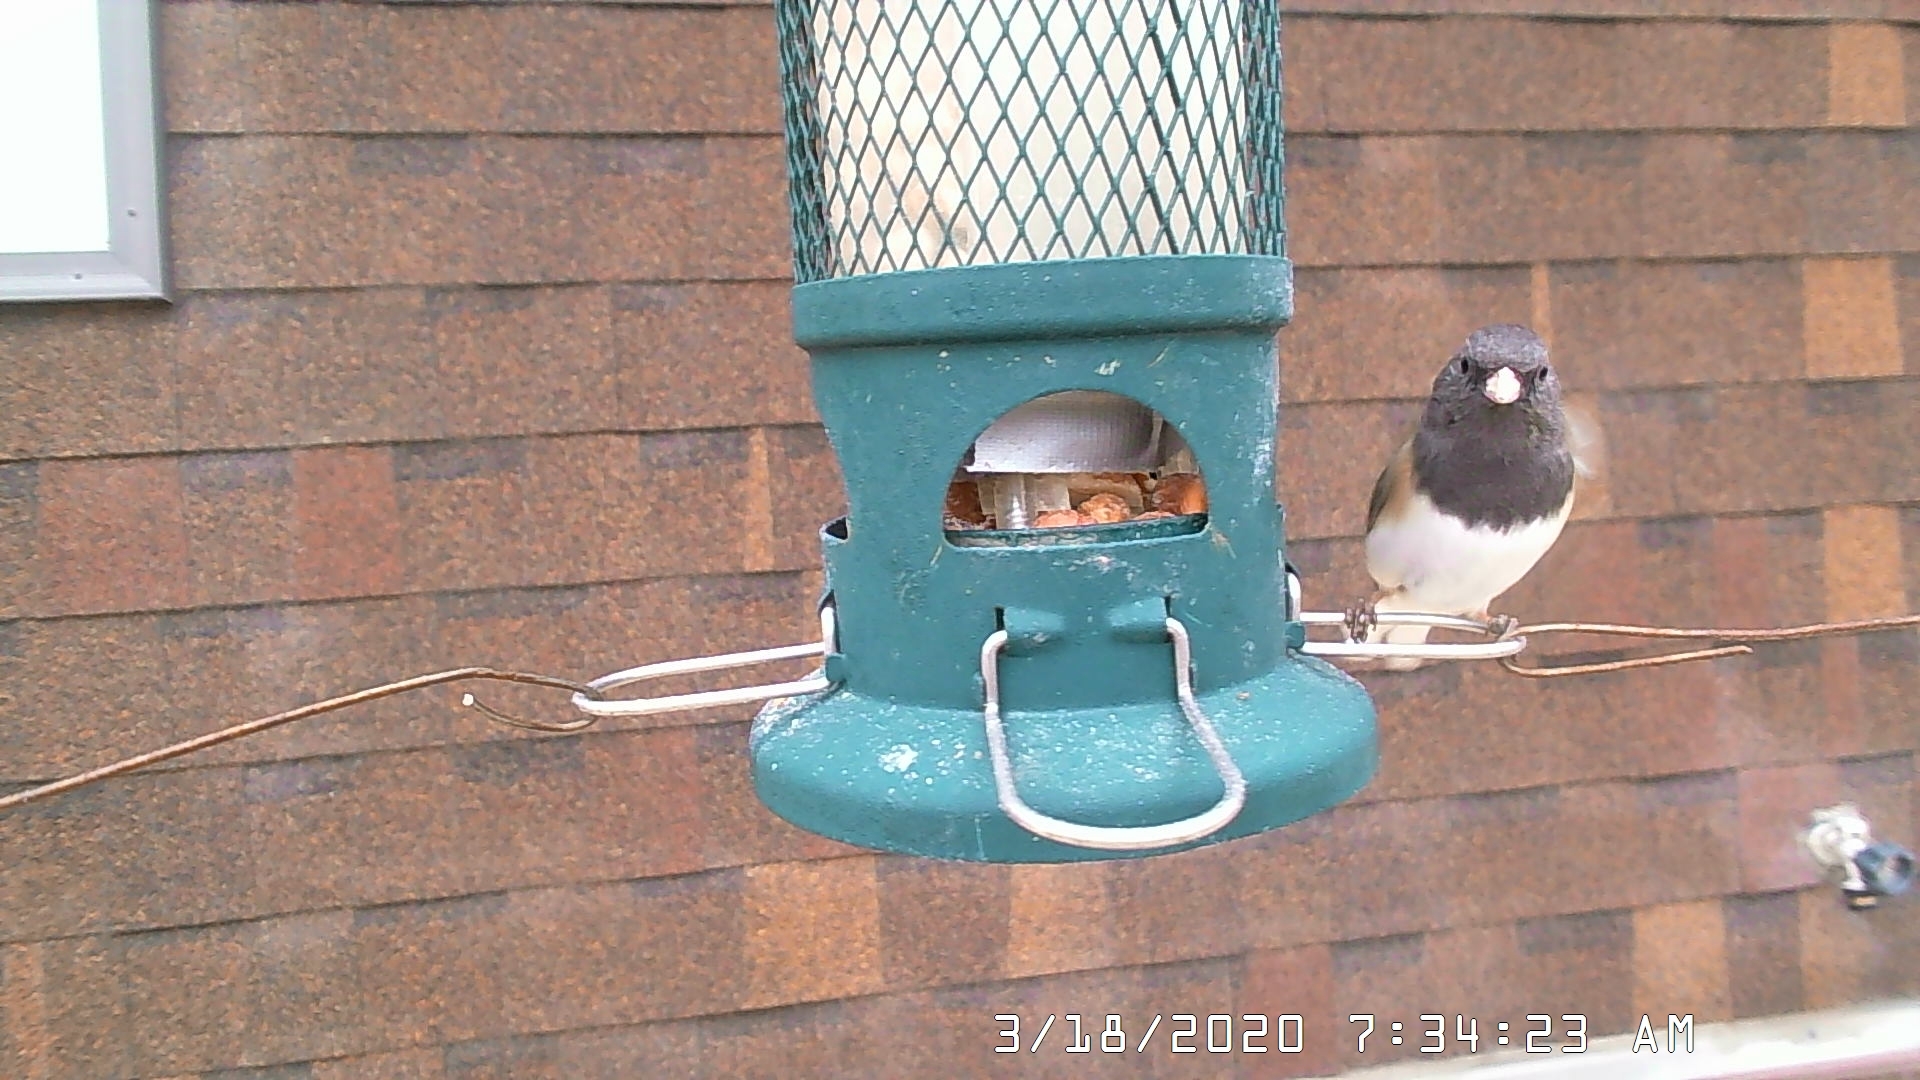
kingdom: Animalia
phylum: Chordata
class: Aves
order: Passeriformes
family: Passerellidae
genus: Junco
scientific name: Junco hyemalis
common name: Dark-eyed junco
